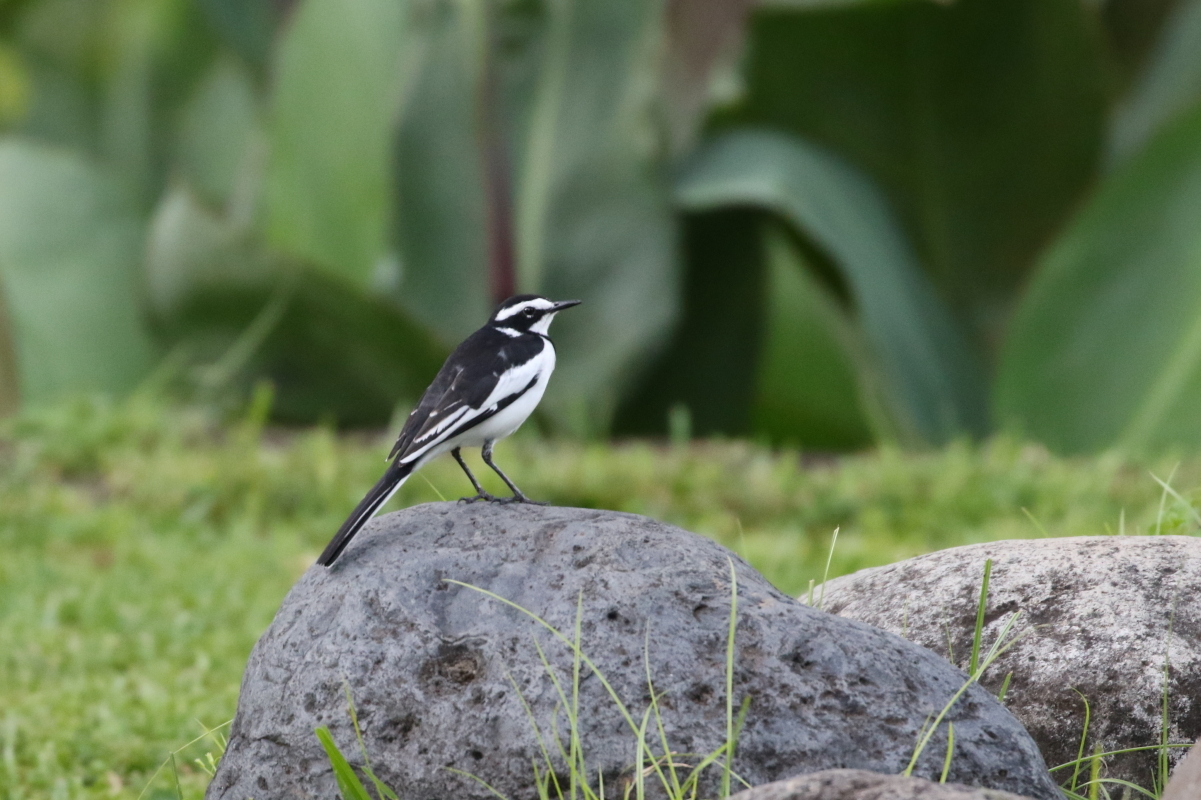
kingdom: Animalia
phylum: Chordata
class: Aves
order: Passeriformes
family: Motacillidae
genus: Motacilla
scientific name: Motacilla aguimp
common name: African pied wagtail
